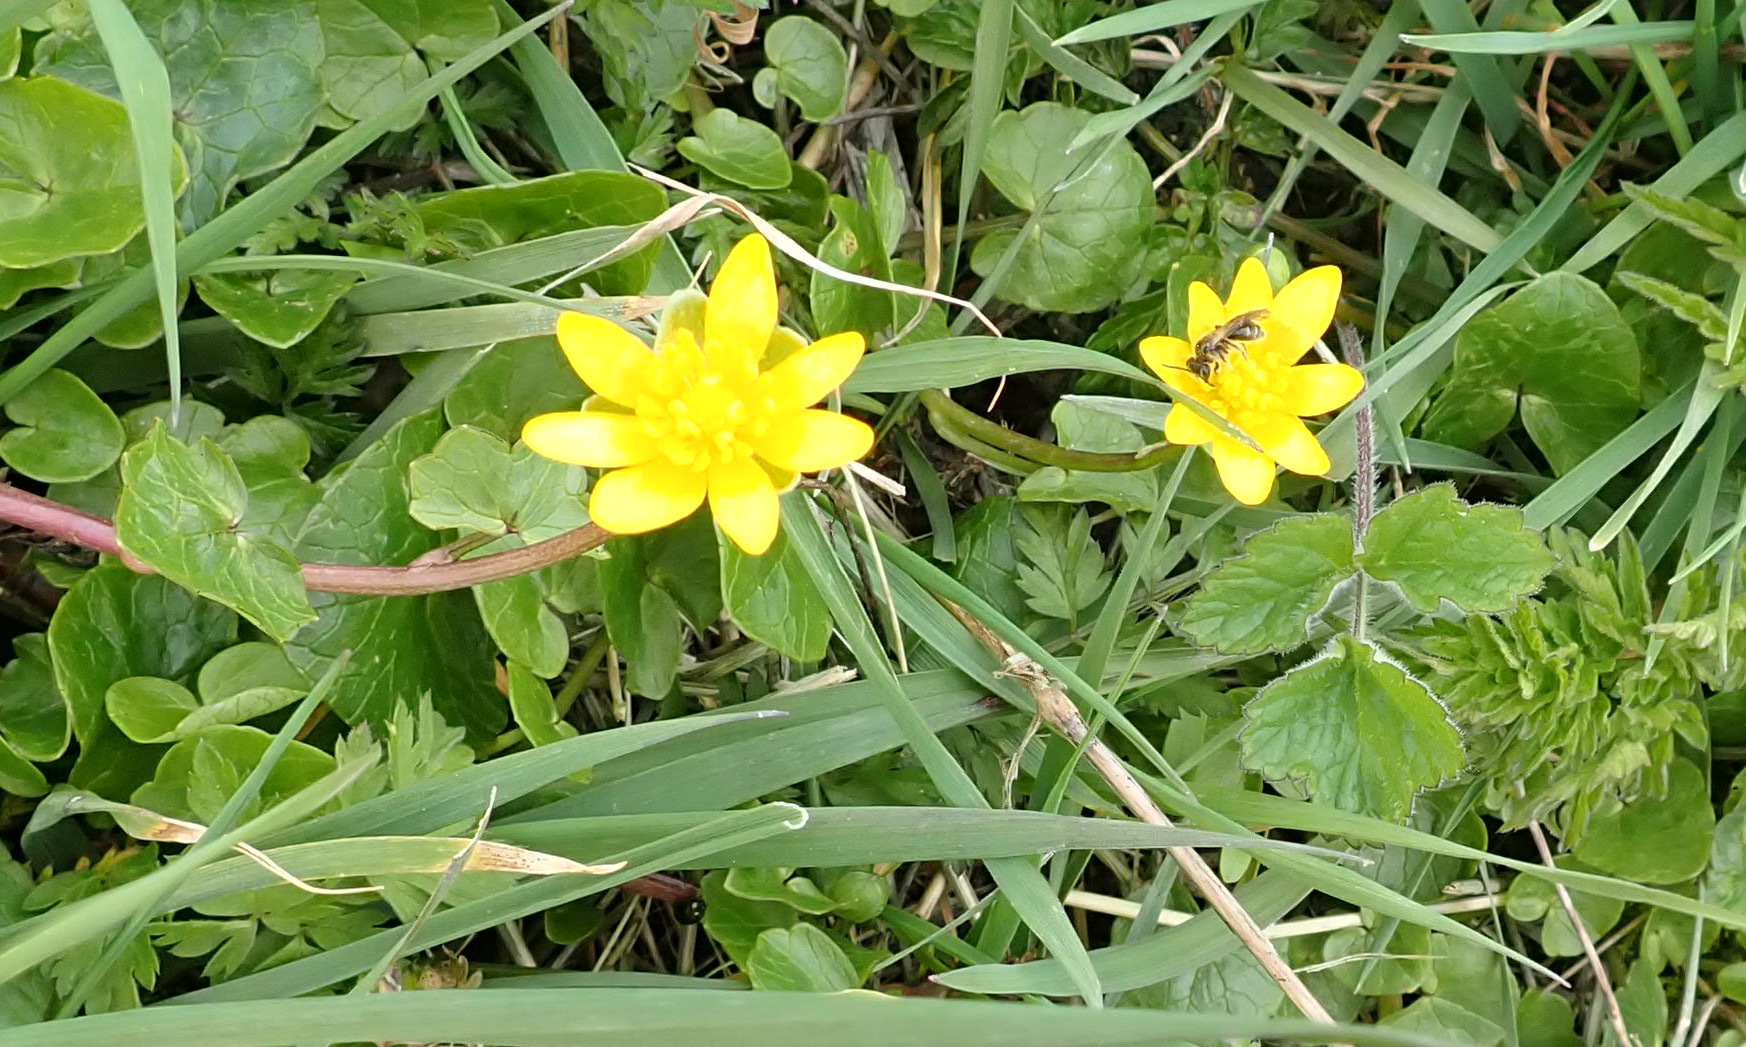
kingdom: Plantae
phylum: Tracheophyta
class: Magnoliopsida
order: Ranunculales
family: Ranunculaceae
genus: Ficaria
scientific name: Ficaria verna
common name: Lesser celandine
